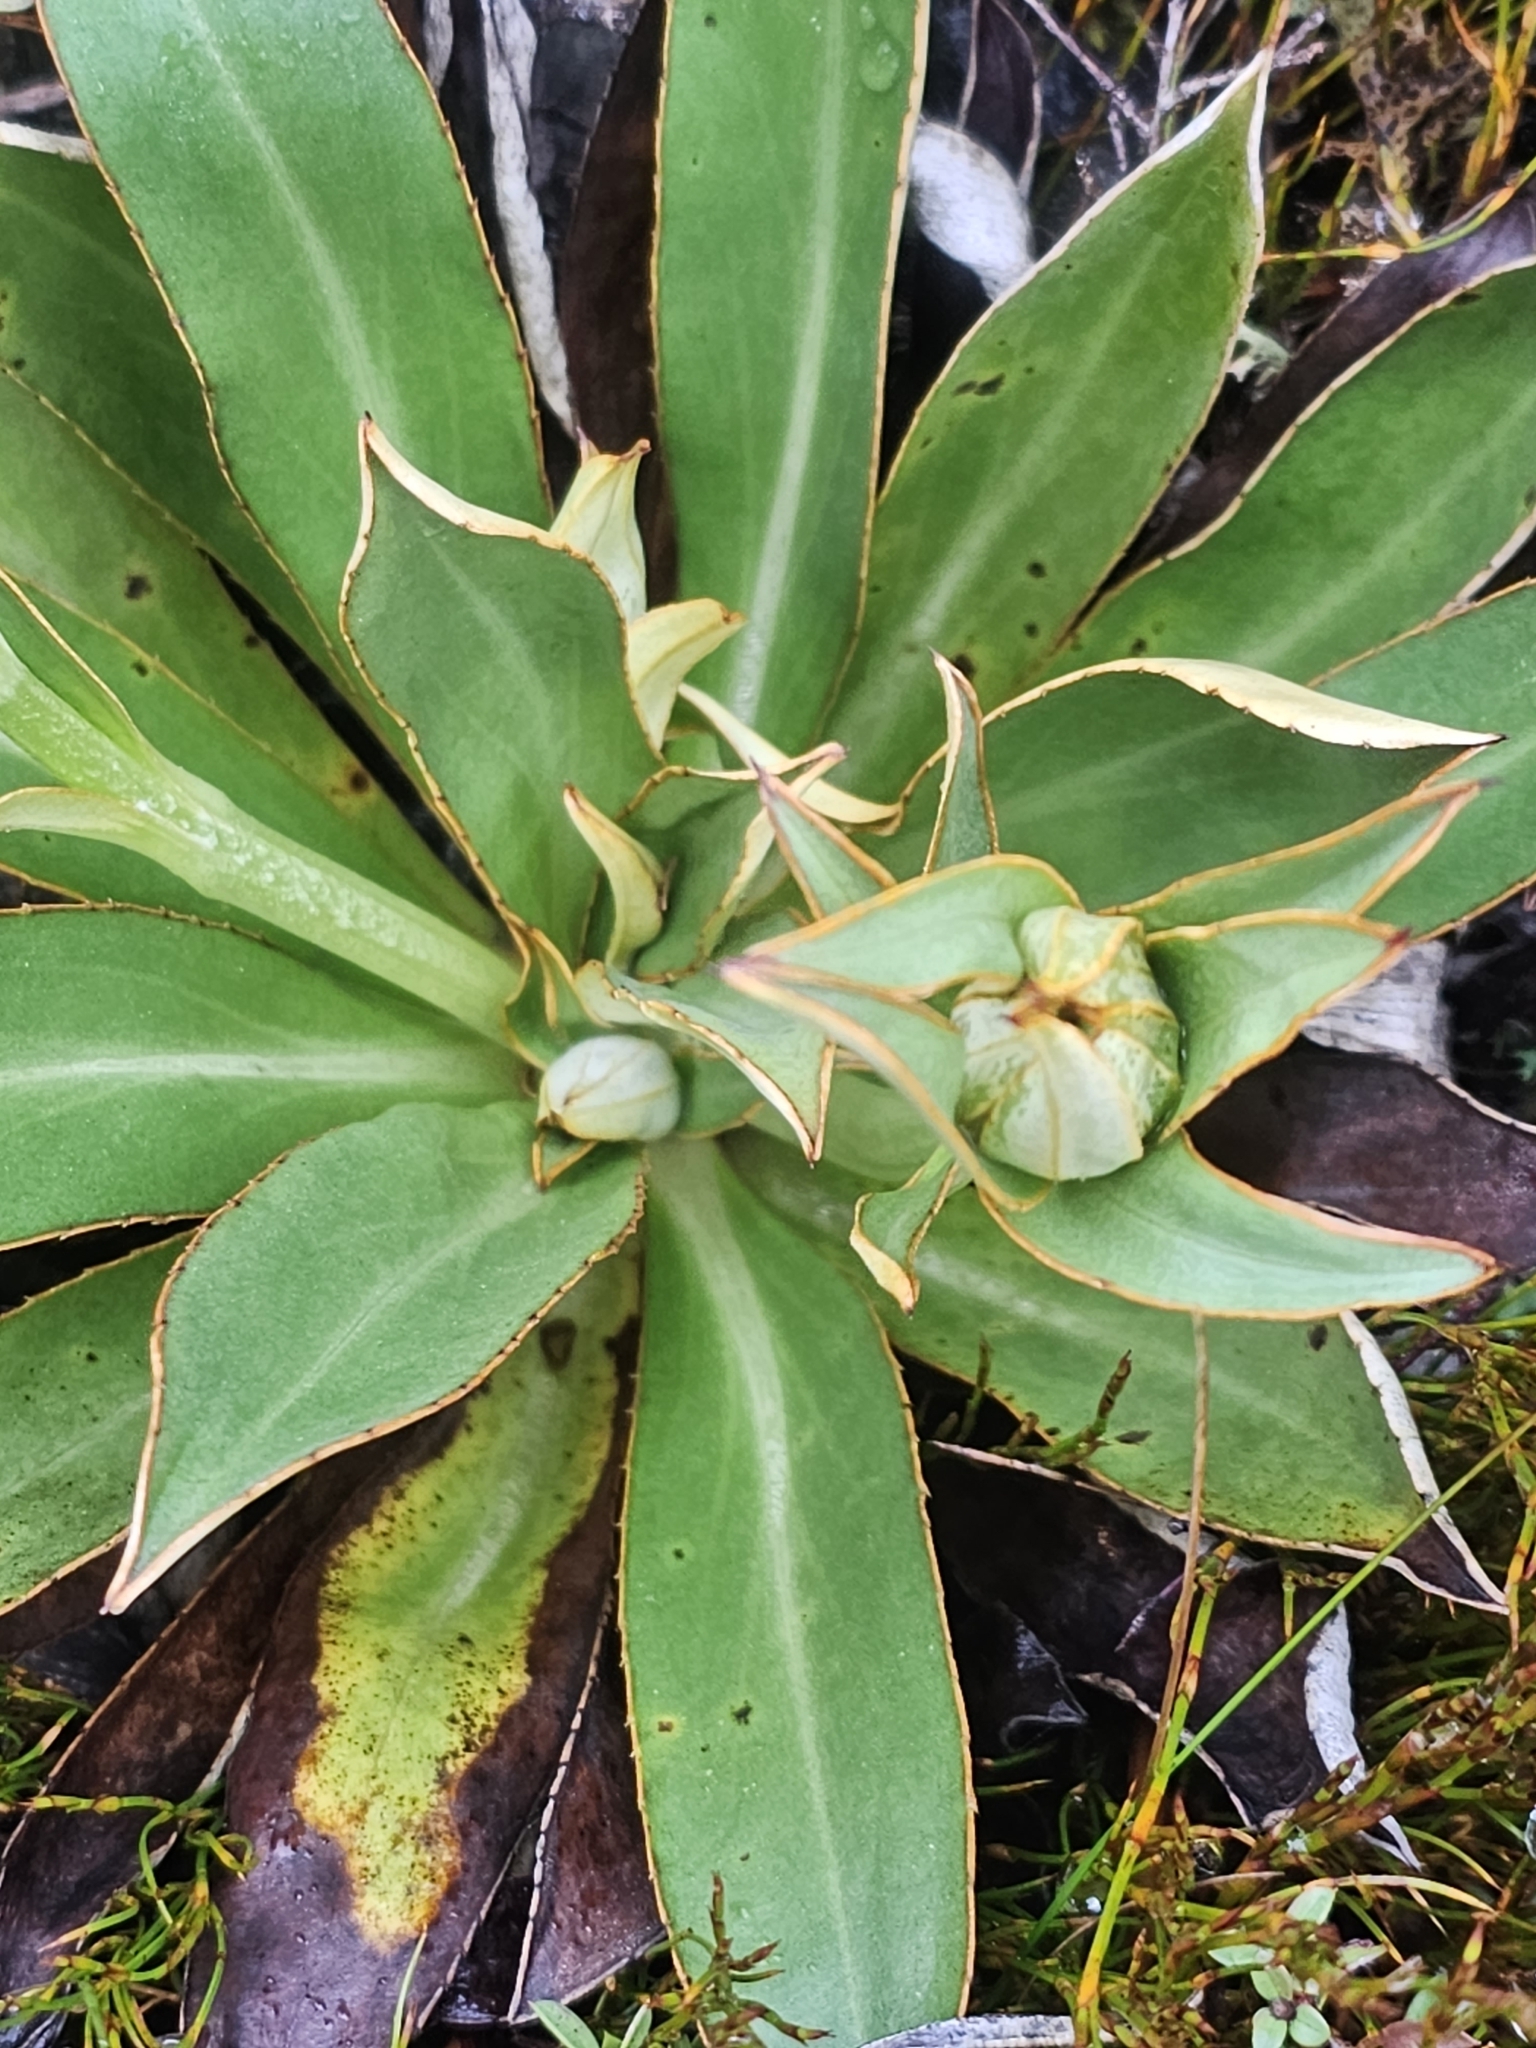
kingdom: Plantae
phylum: Tracheophyta
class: Magnoliopsida
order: Asterales
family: Asteraceae
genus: Celmisia
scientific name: Celmisia dallii
